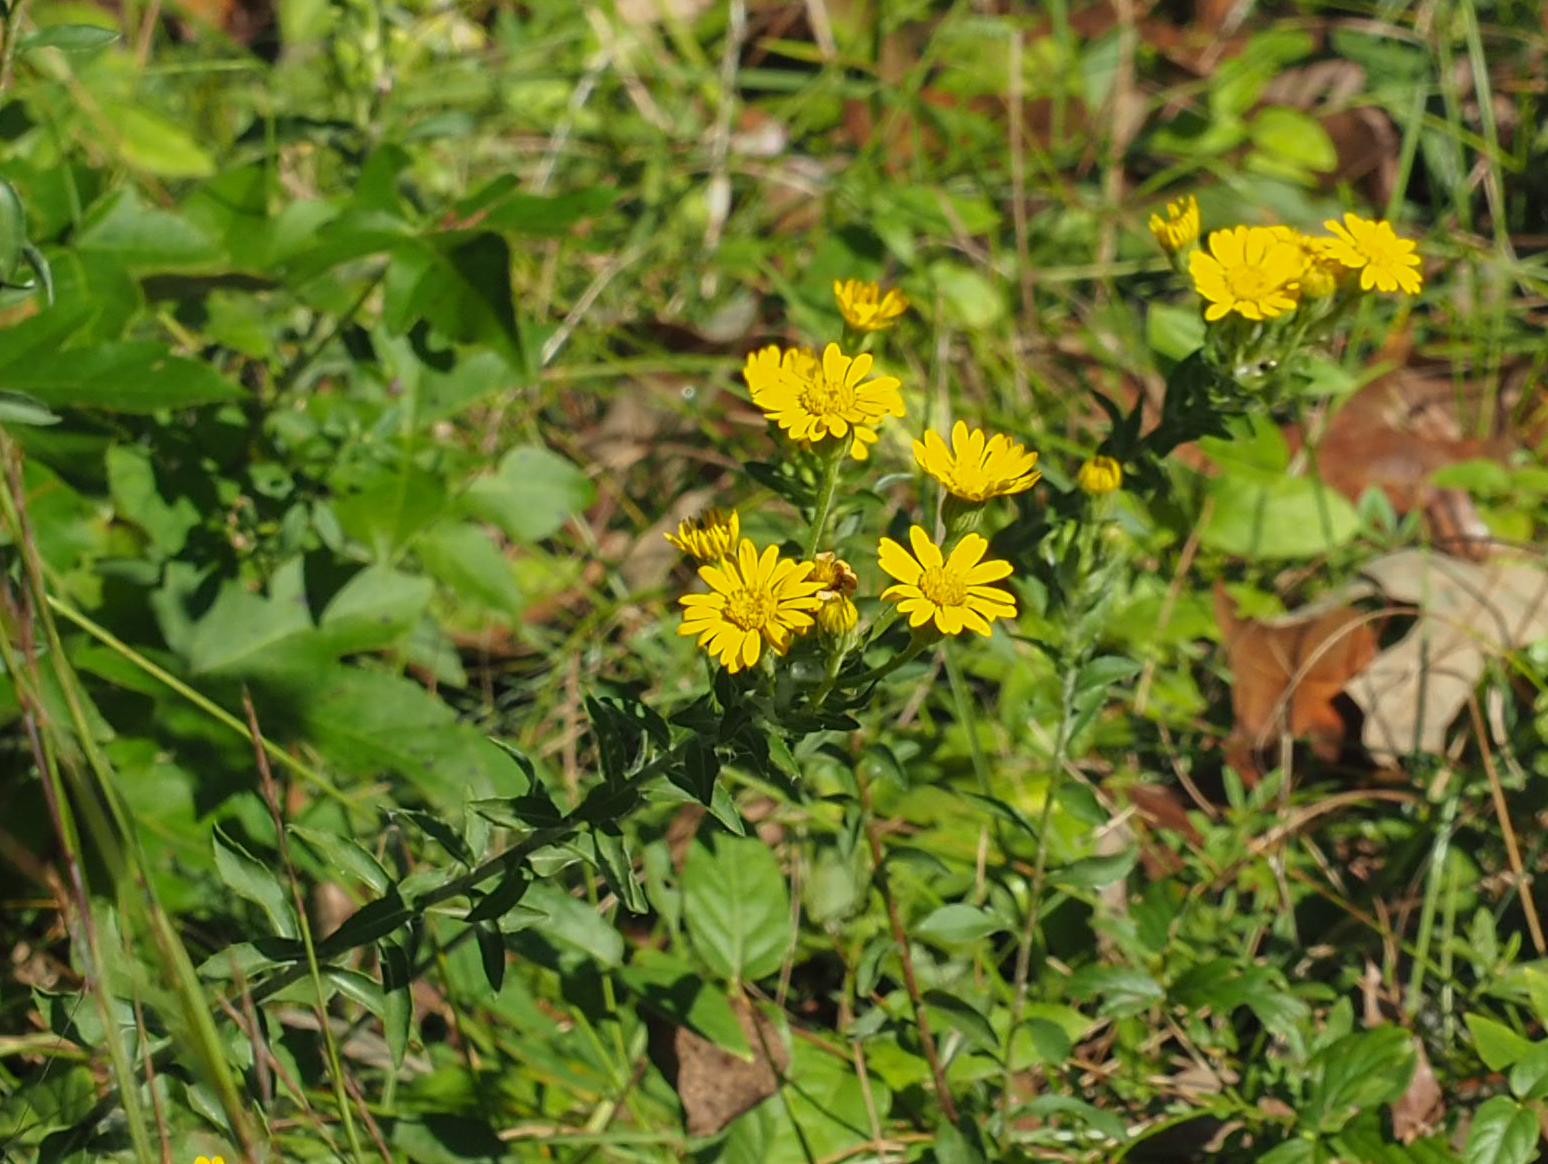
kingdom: Plantae
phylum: Tracheophyta
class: Magnoliopsida
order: Asterales
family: Asteraceae
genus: Chrysopsis
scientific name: Chrysopsis mariana
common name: Maryland golden-aster
